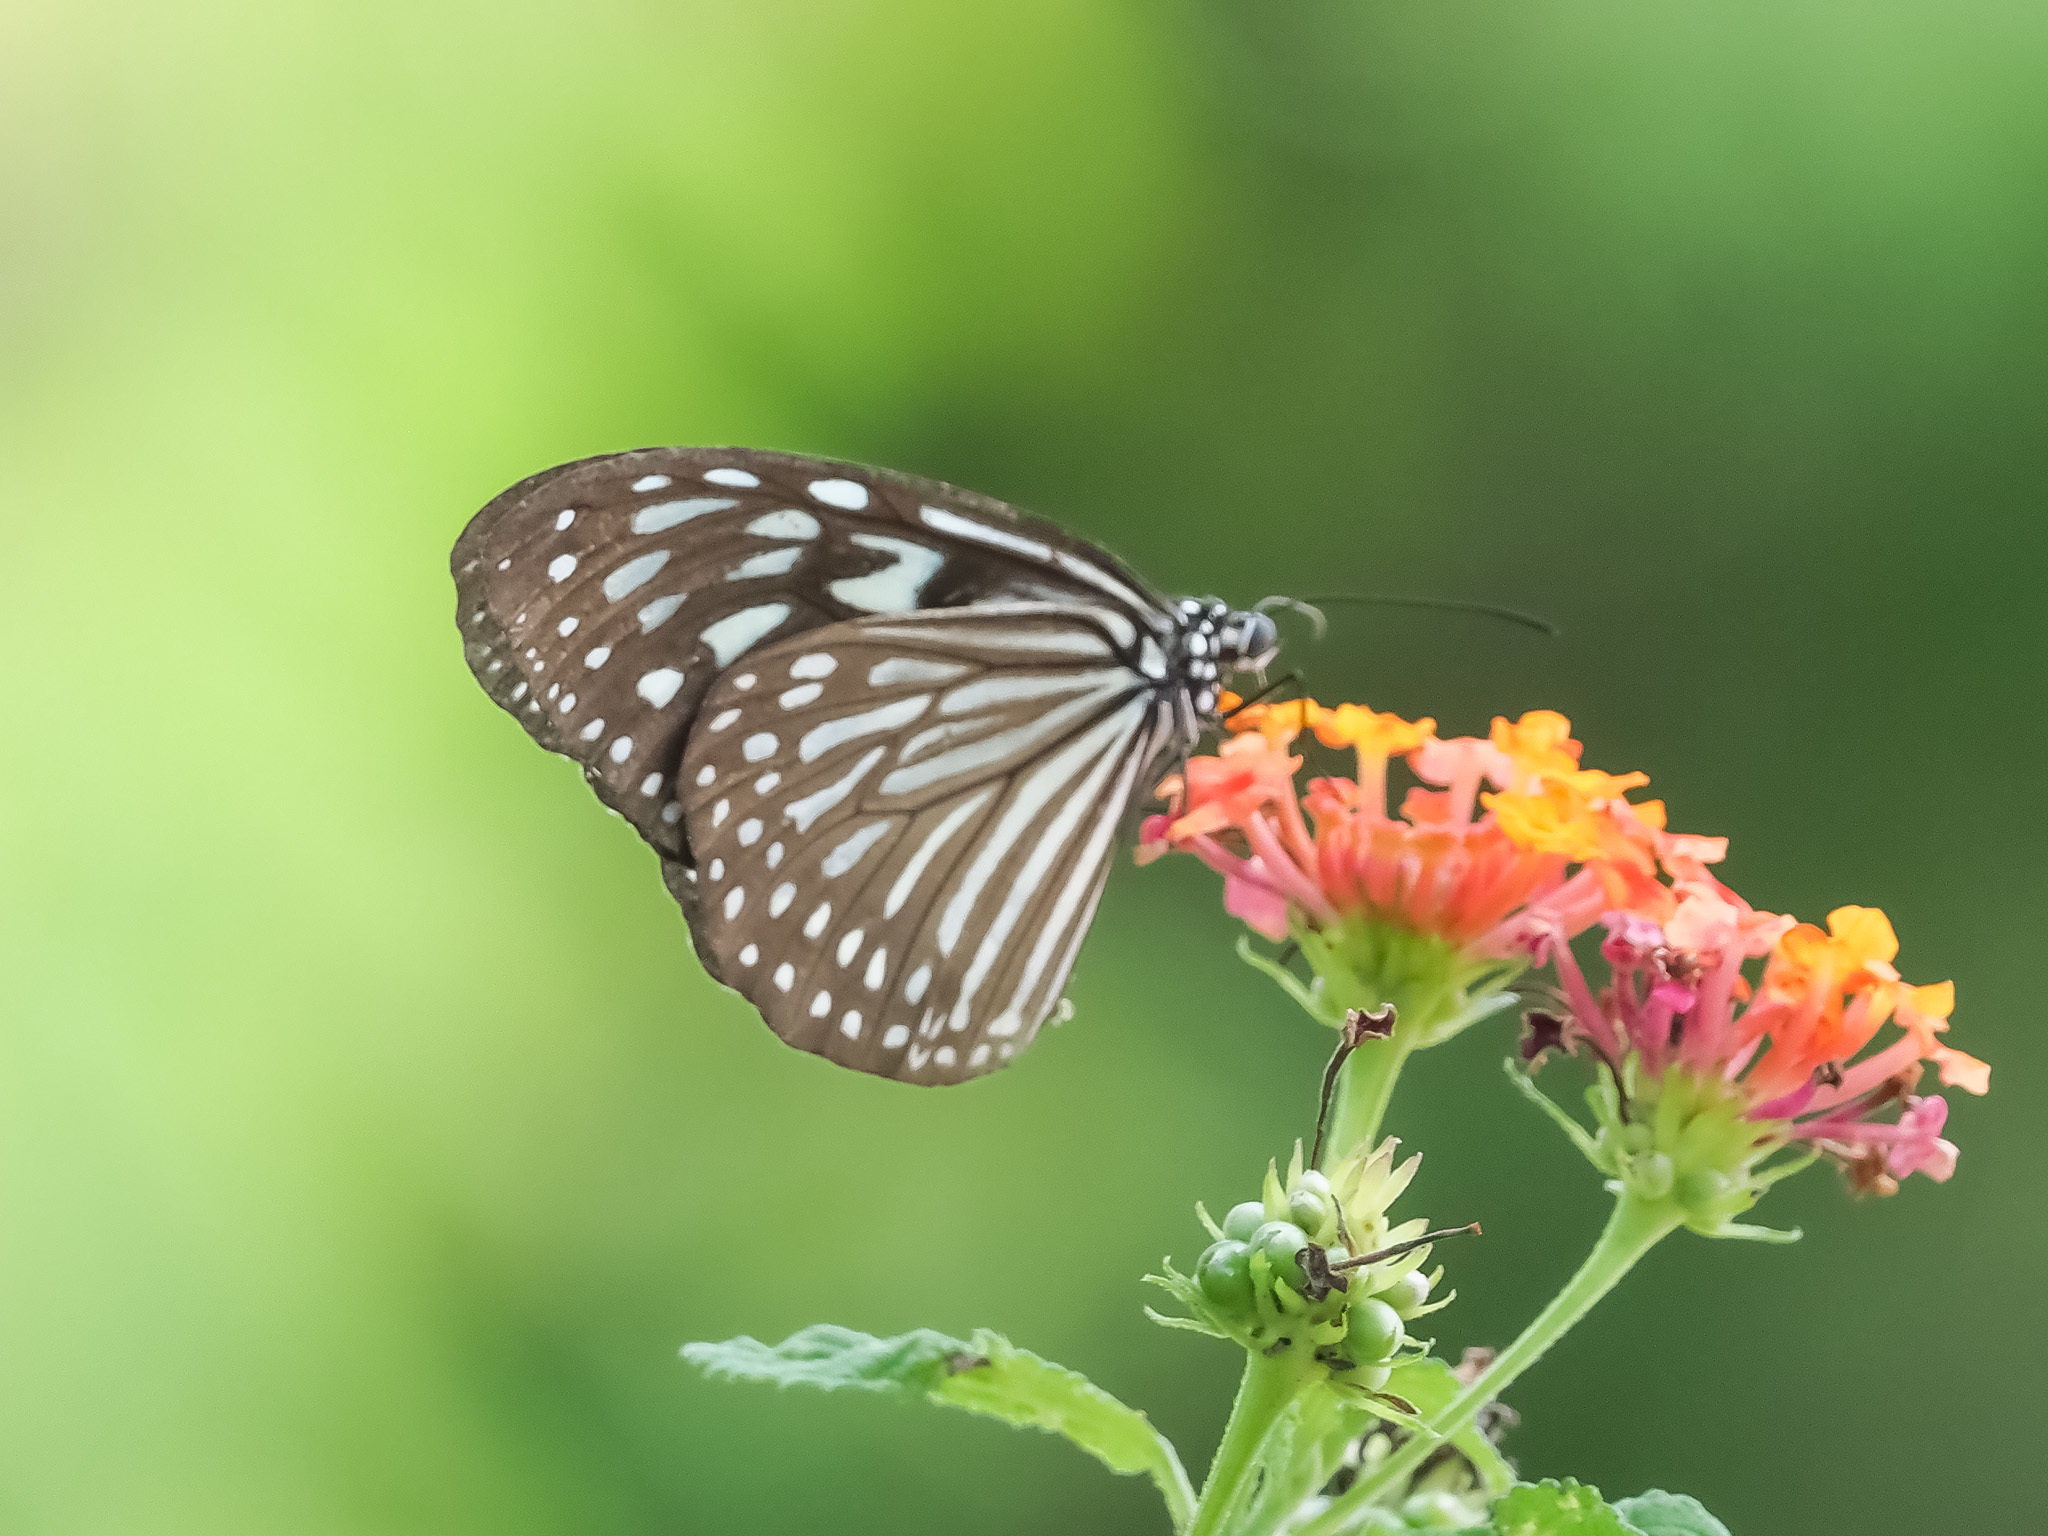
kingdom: Animalia
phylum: Arthropoda
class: Insecta
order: Lepidoptera
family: Nymphalidae
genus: Ideopsis
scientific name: Ideopsis vulgaris
